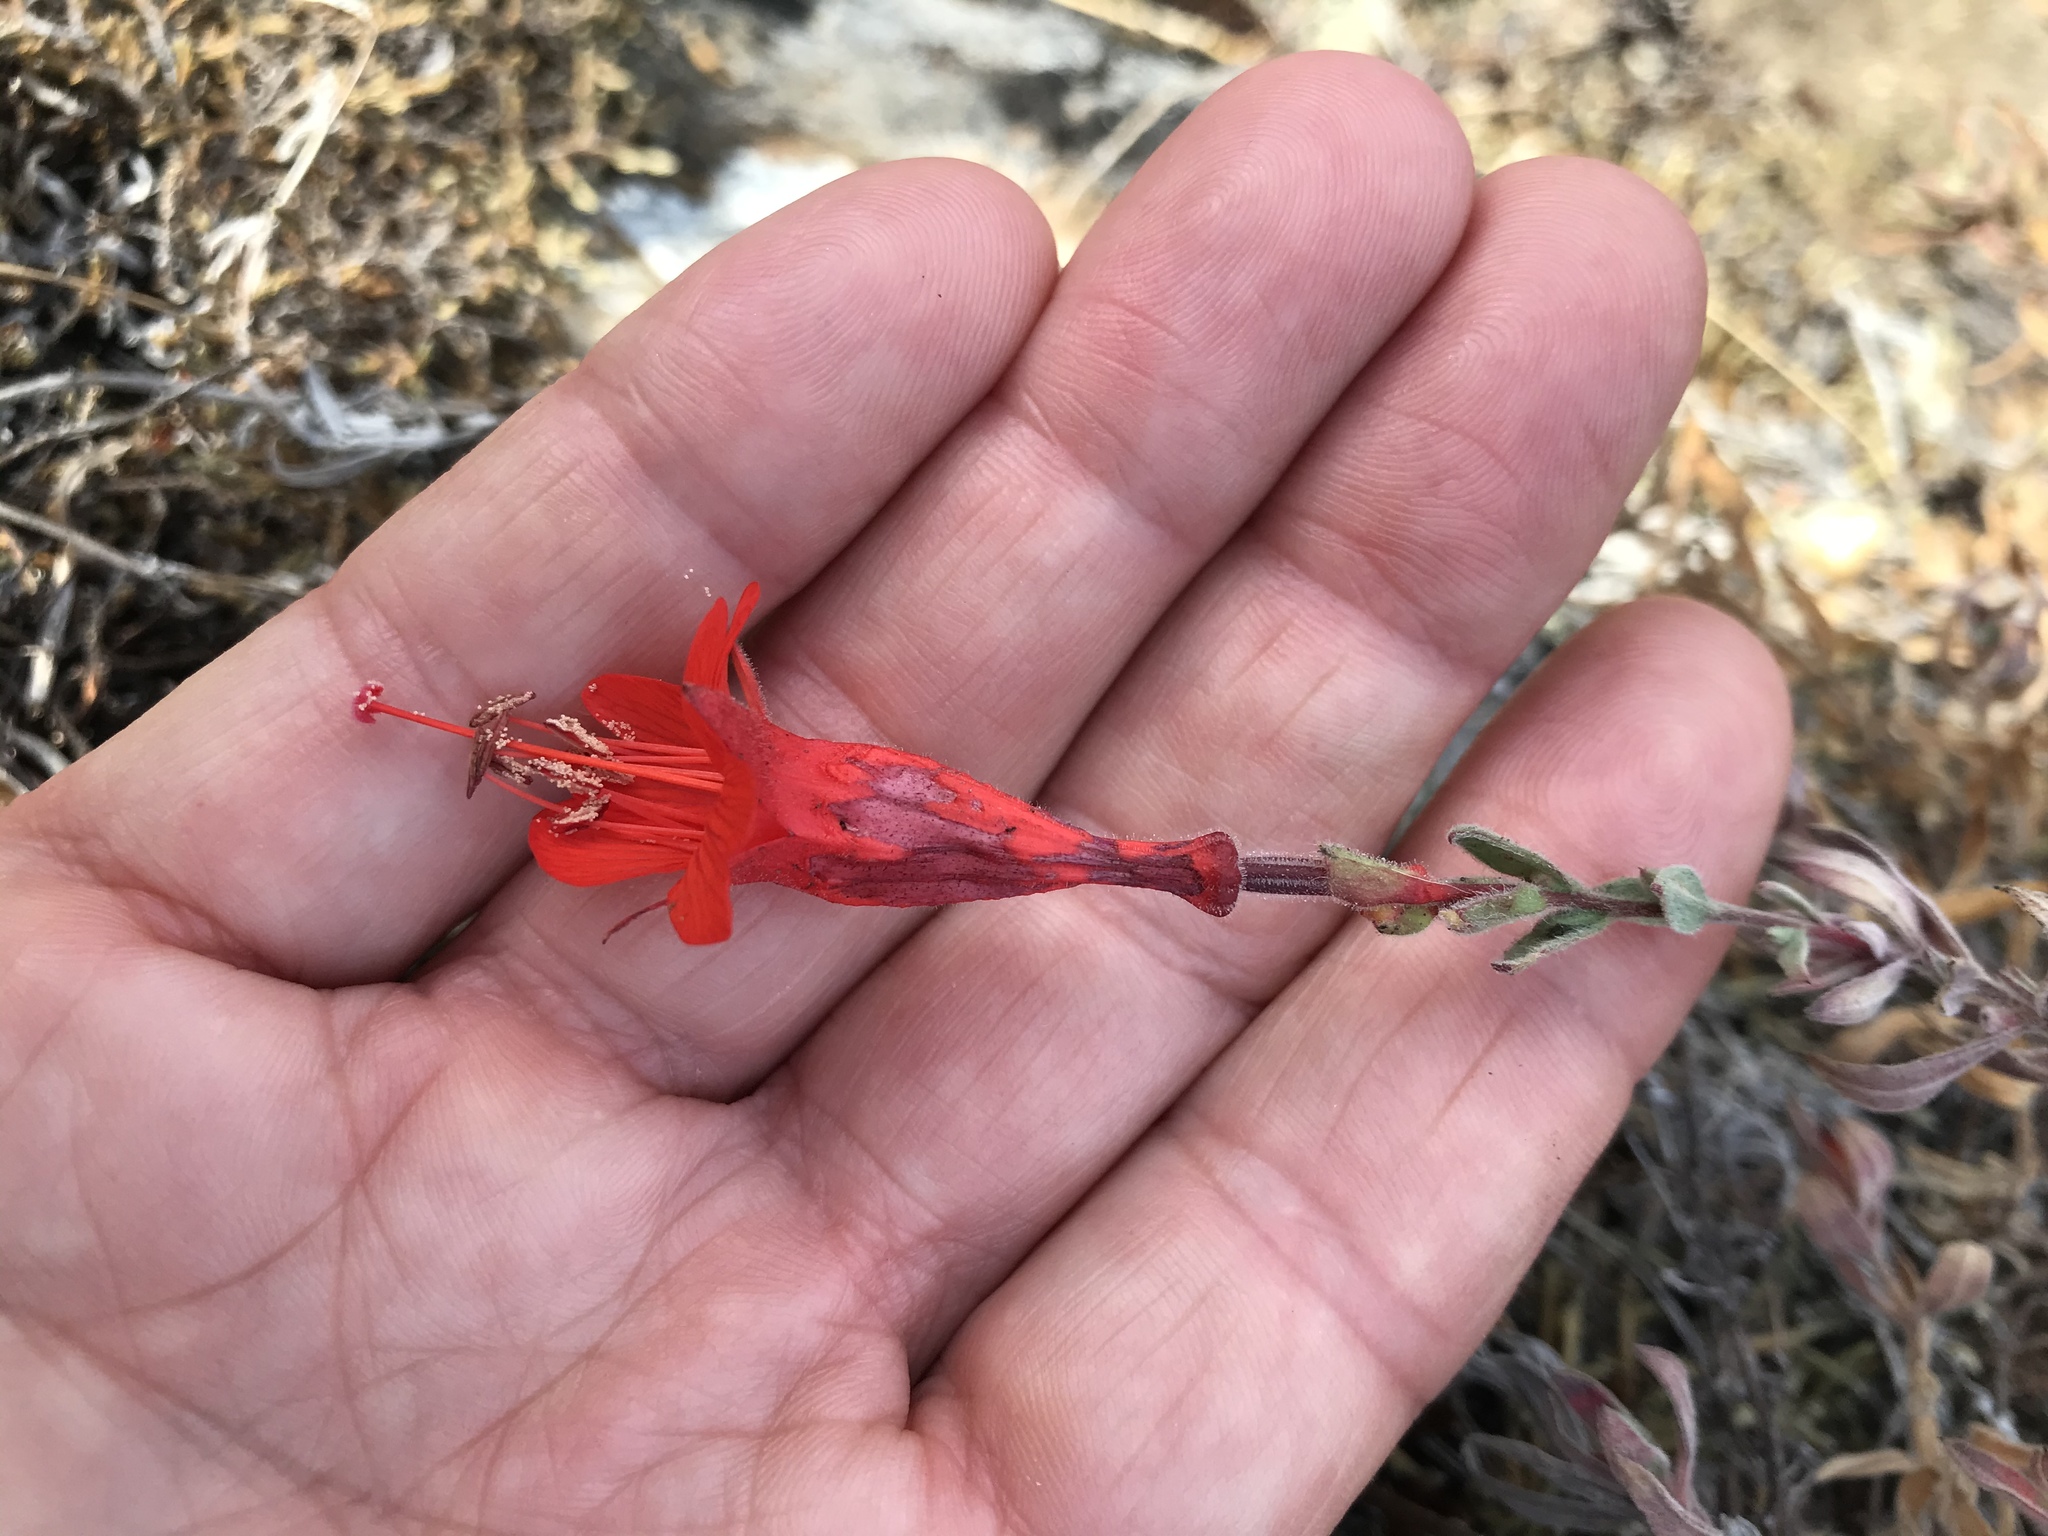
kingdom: Plantae
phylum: Tracheophyta
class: Magnoliopsida
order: Myrtales
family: Onagraceae
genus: Epilobium
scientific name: Epilobium canum
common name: California-fuchsia
